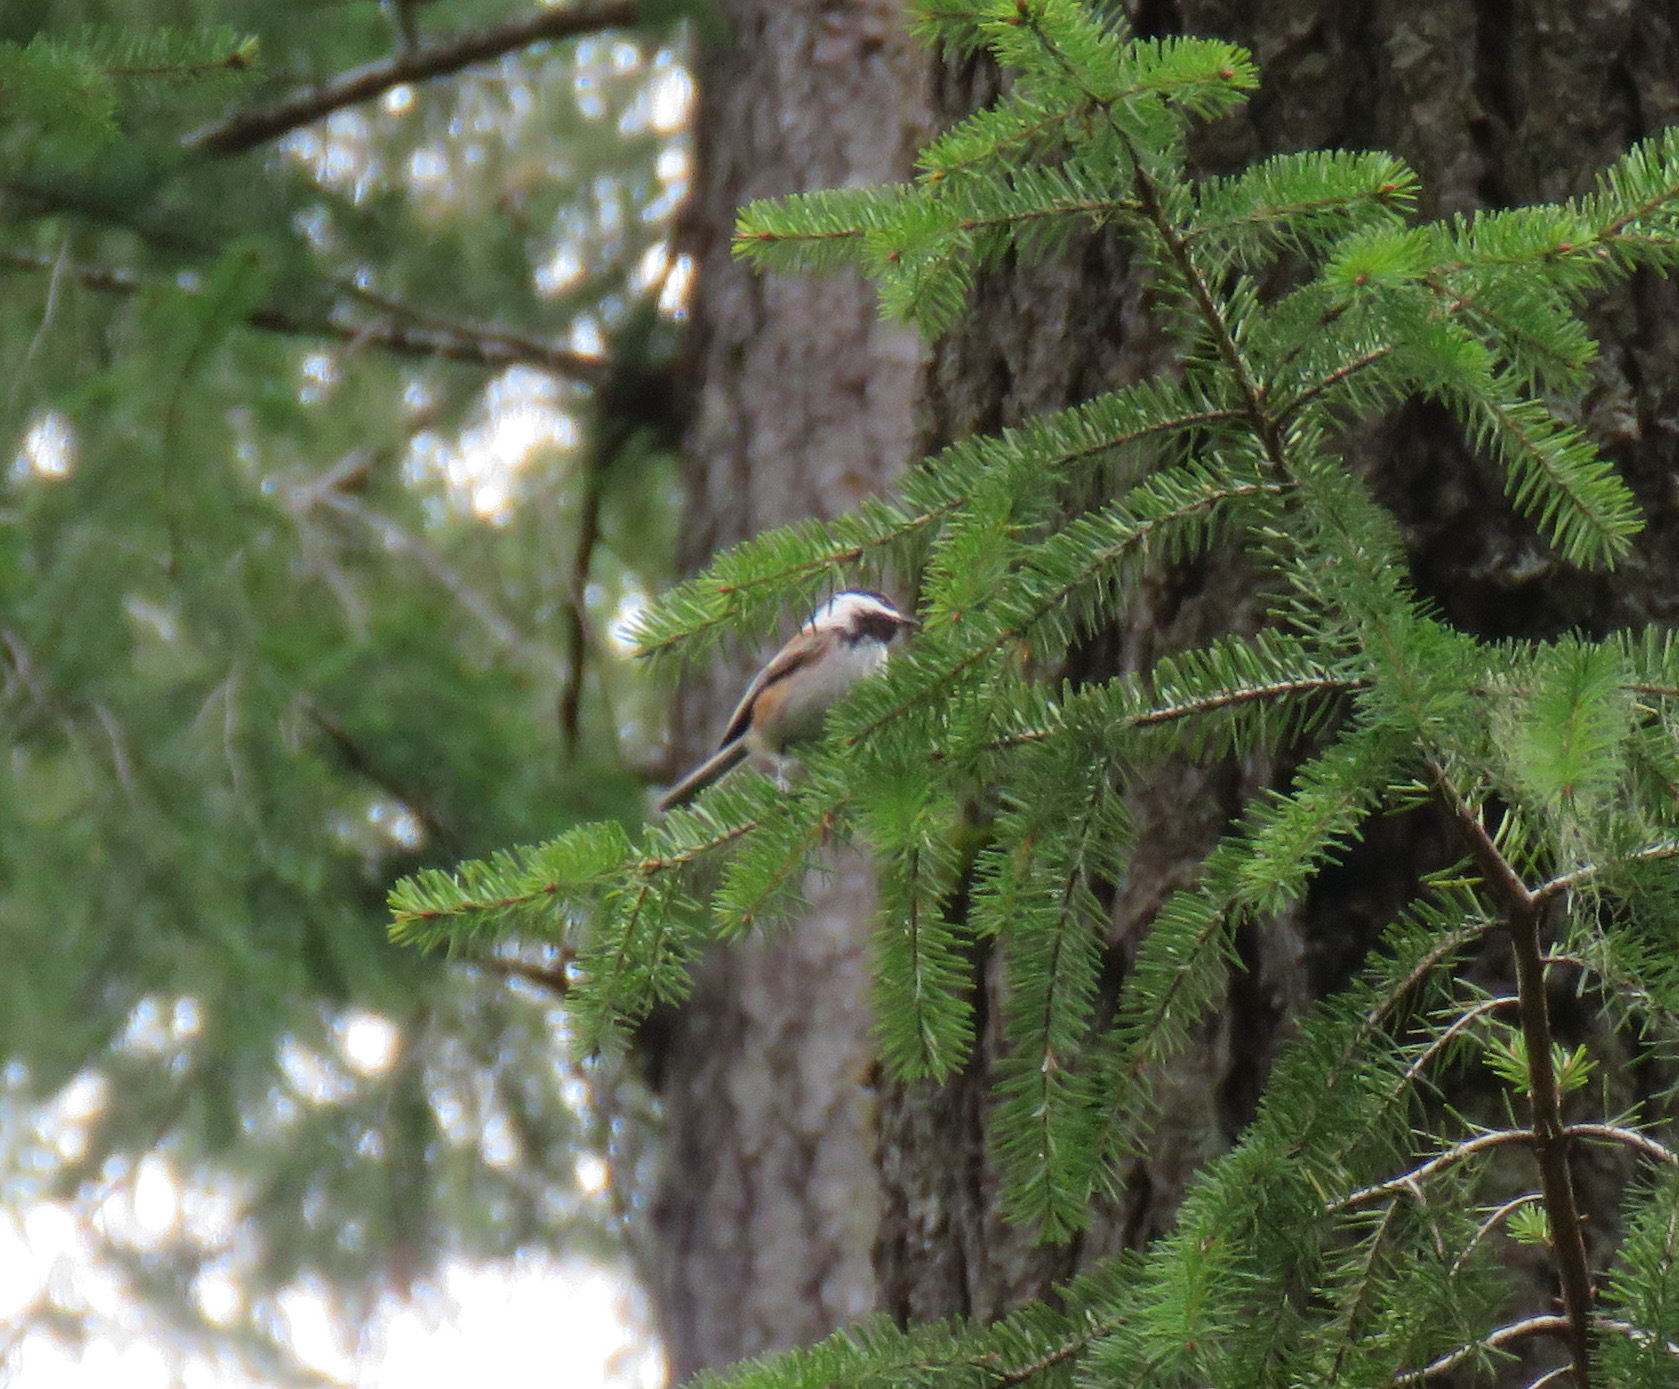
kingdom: Animalia
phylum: Chordata
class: Aves
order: Passeriformes
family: Paridae
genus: Poecile
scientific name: Poecile rufescens
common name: Chestnut-backed chickadee
